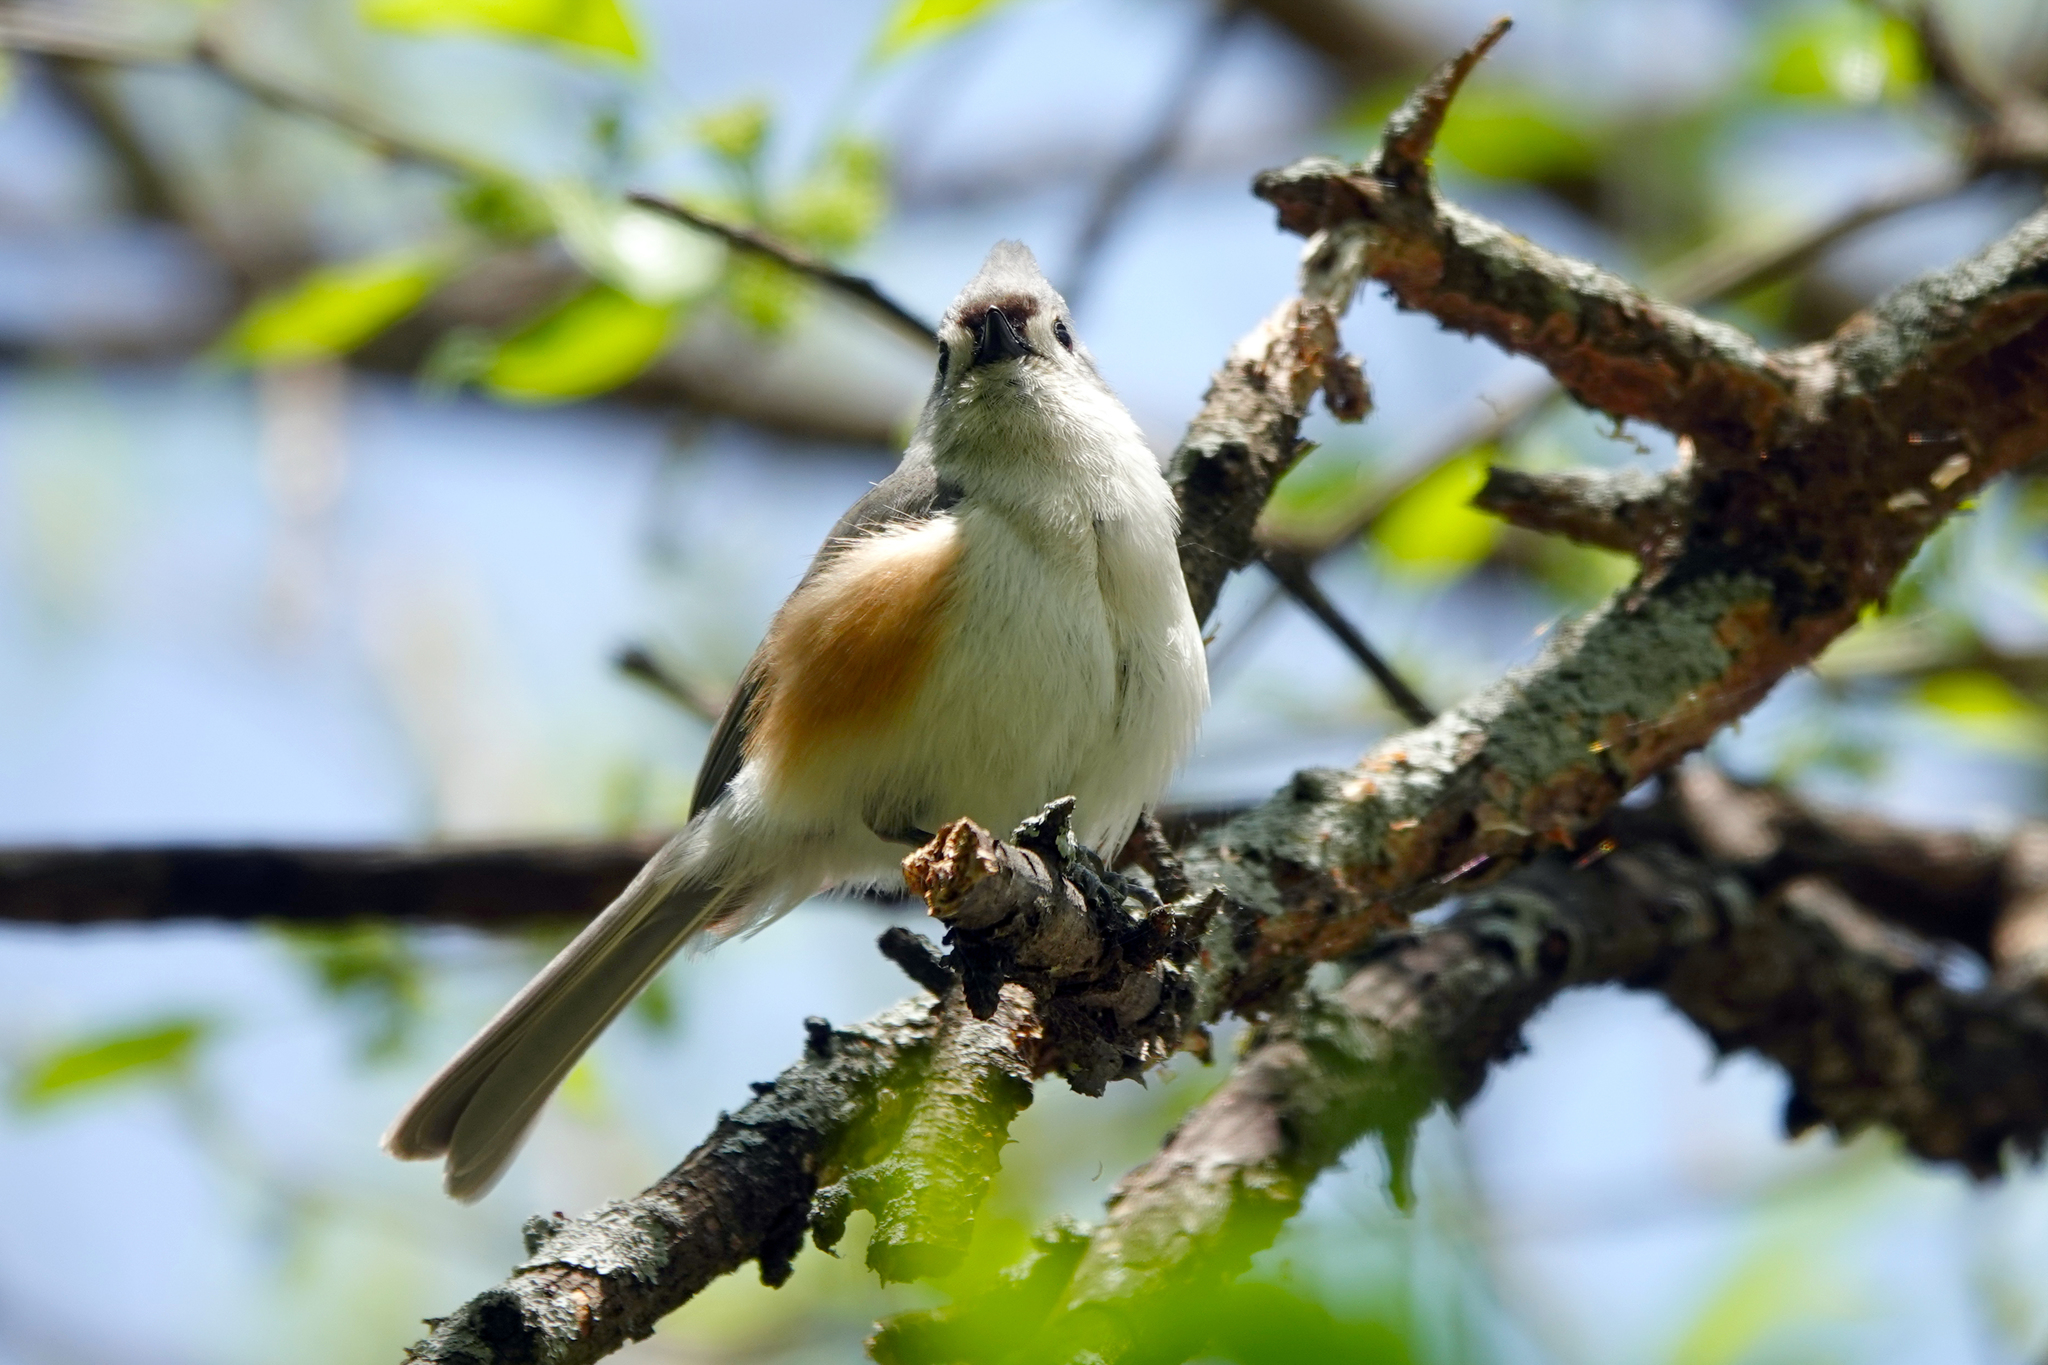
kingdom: Animalia
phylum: Chordata
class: Aves
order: Passeriformes
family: Paridae
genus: Baeolophus
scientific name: Baeolophus bicolor
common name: Tufted titmouse
